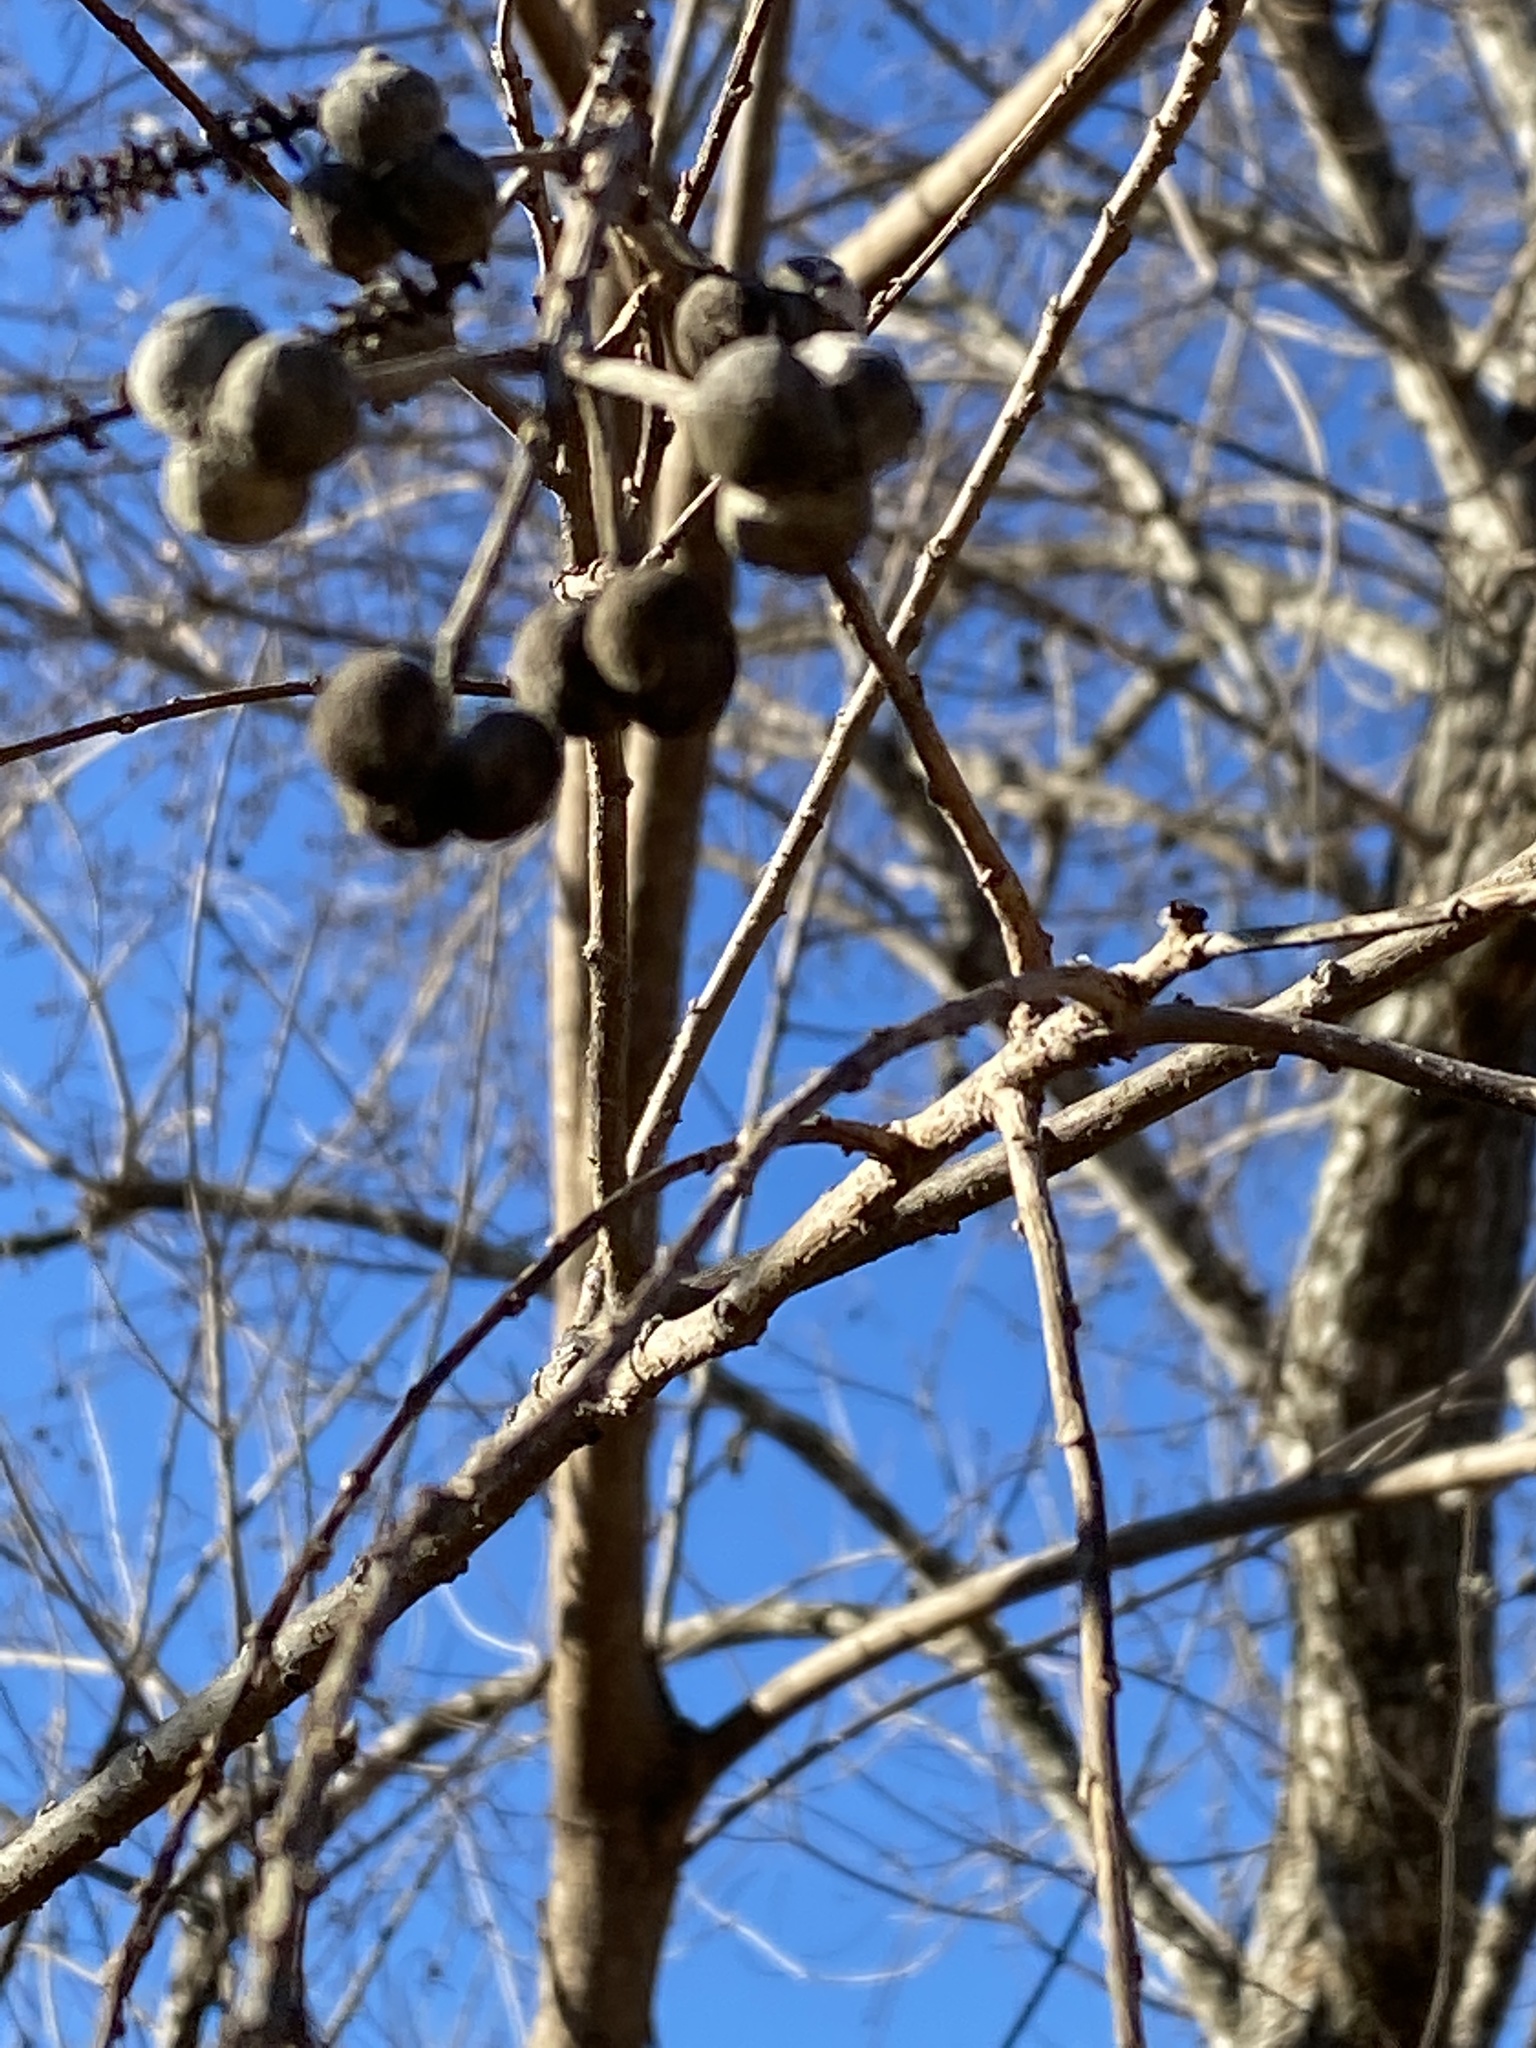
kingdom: Plantae
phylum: Tracheophyta
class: Magnoliopsida
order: Malpighiales
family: Euphorbiaceae
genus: Triadica
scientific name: Triadica sebifera
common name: Chinese tallow
